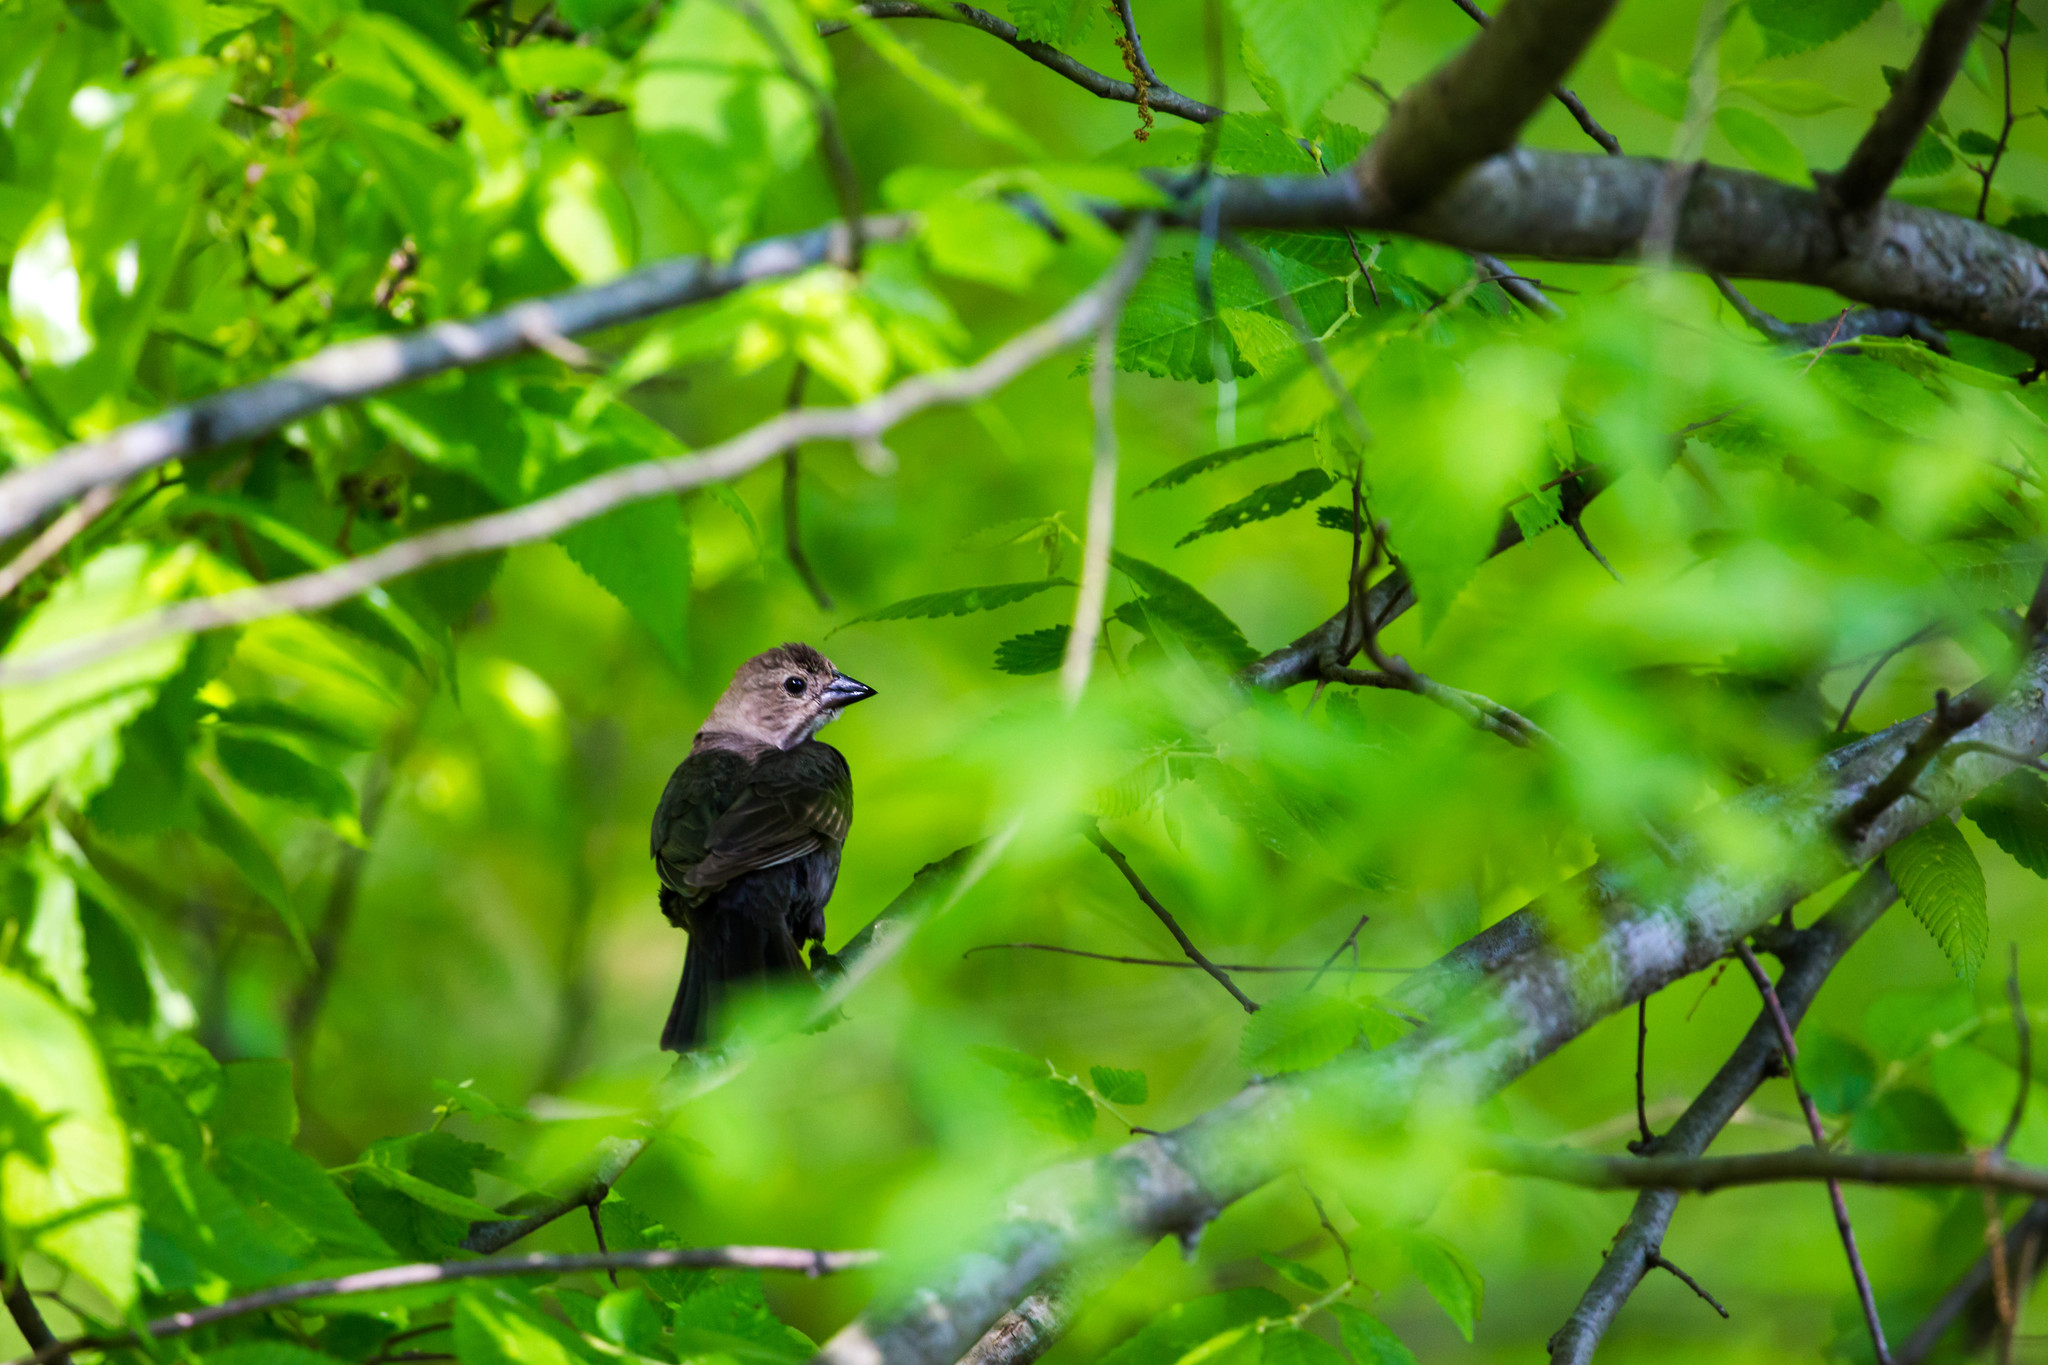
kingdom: Animalia
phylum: Chordata
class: Aves
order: Passeriformes
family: Icteridae
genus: Molothrus
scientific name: Molothrus ater
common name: Brown-headed cowbird
